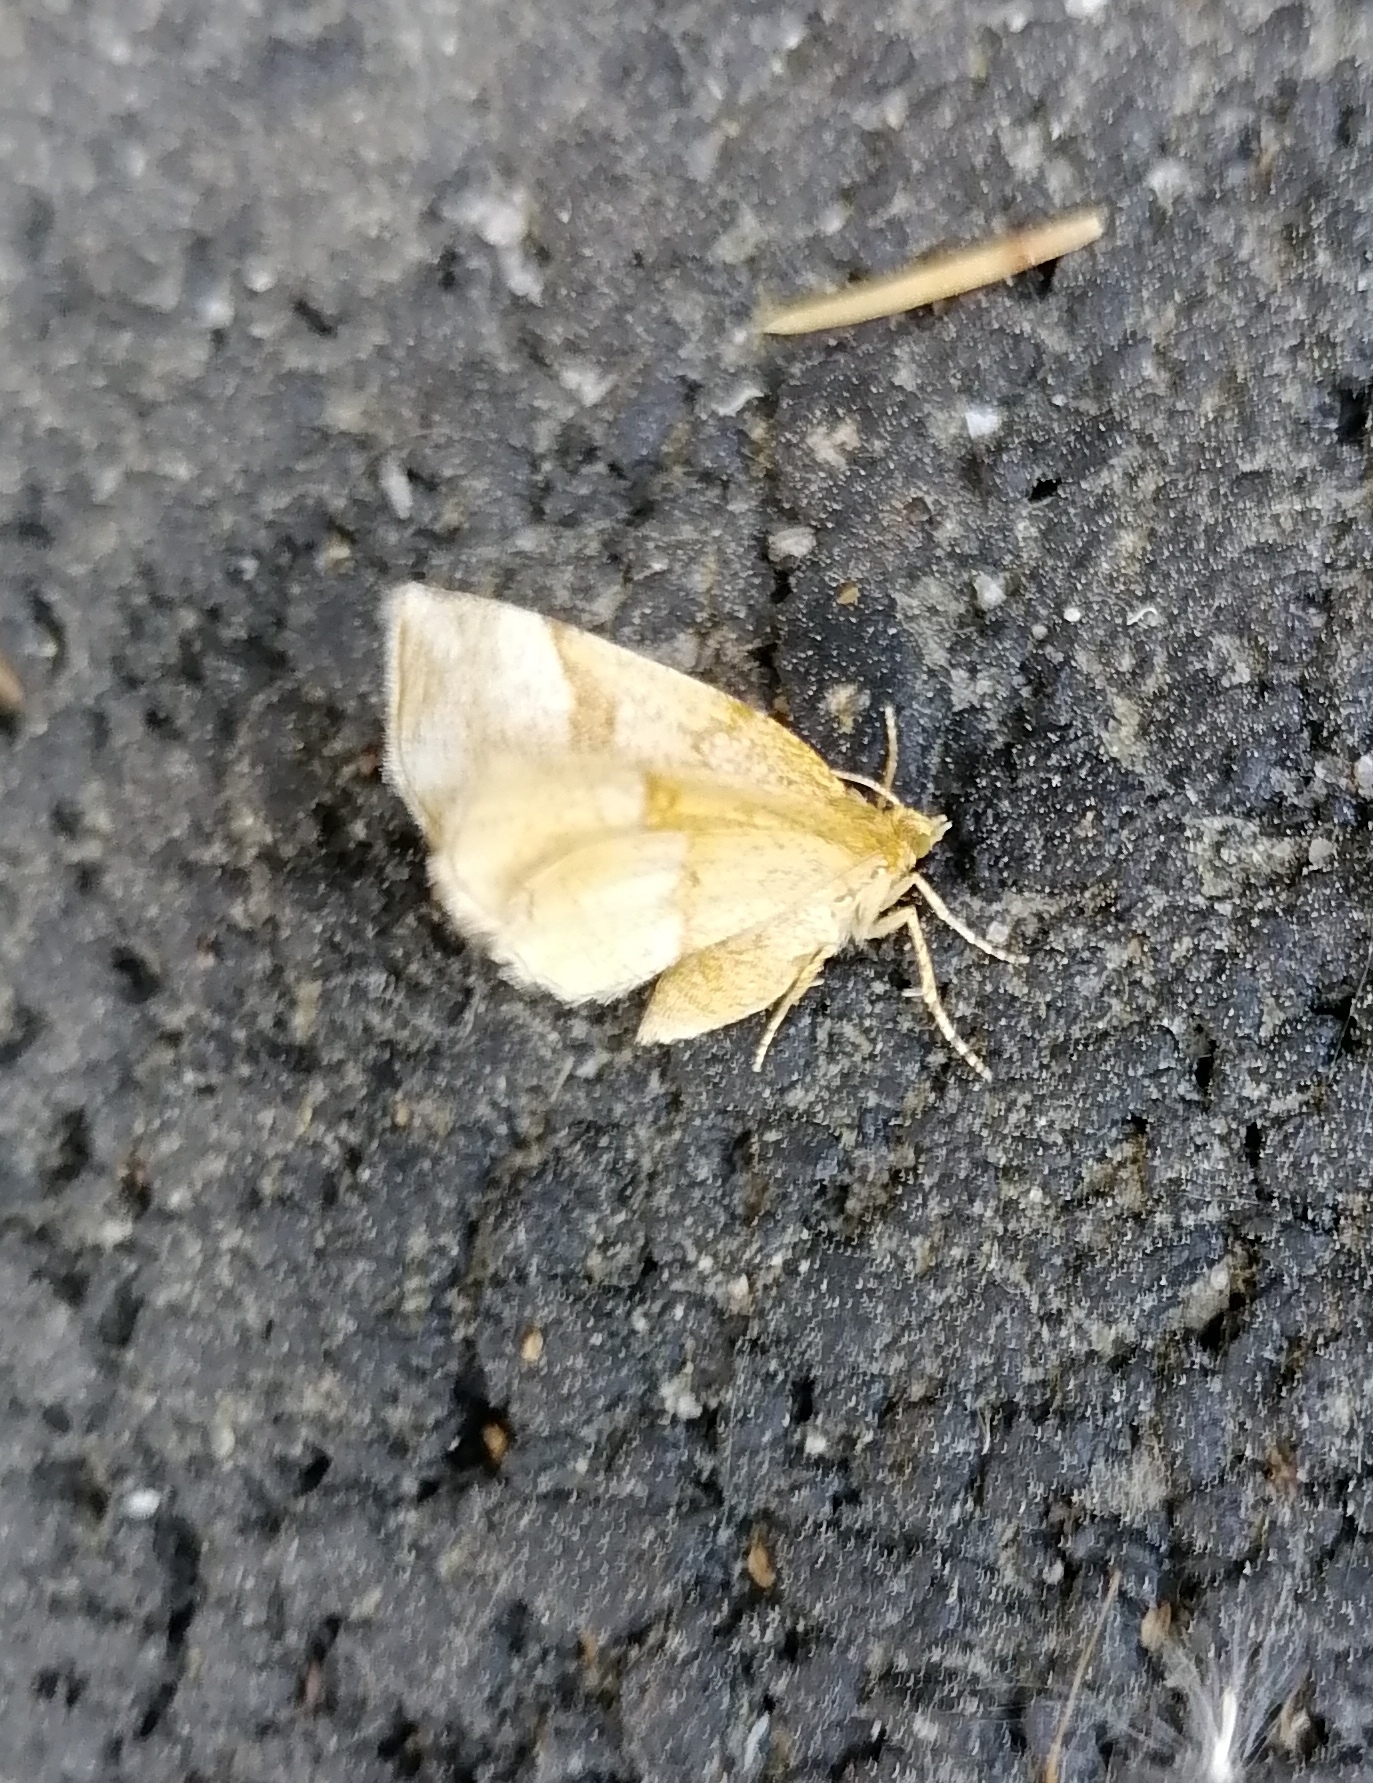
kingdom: Animalia
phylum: Arthropoda
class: Insecta
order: Lepidoptera
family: Geometridae
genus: Cepphis
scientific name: Cepphis advenaria
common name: Little thorn
